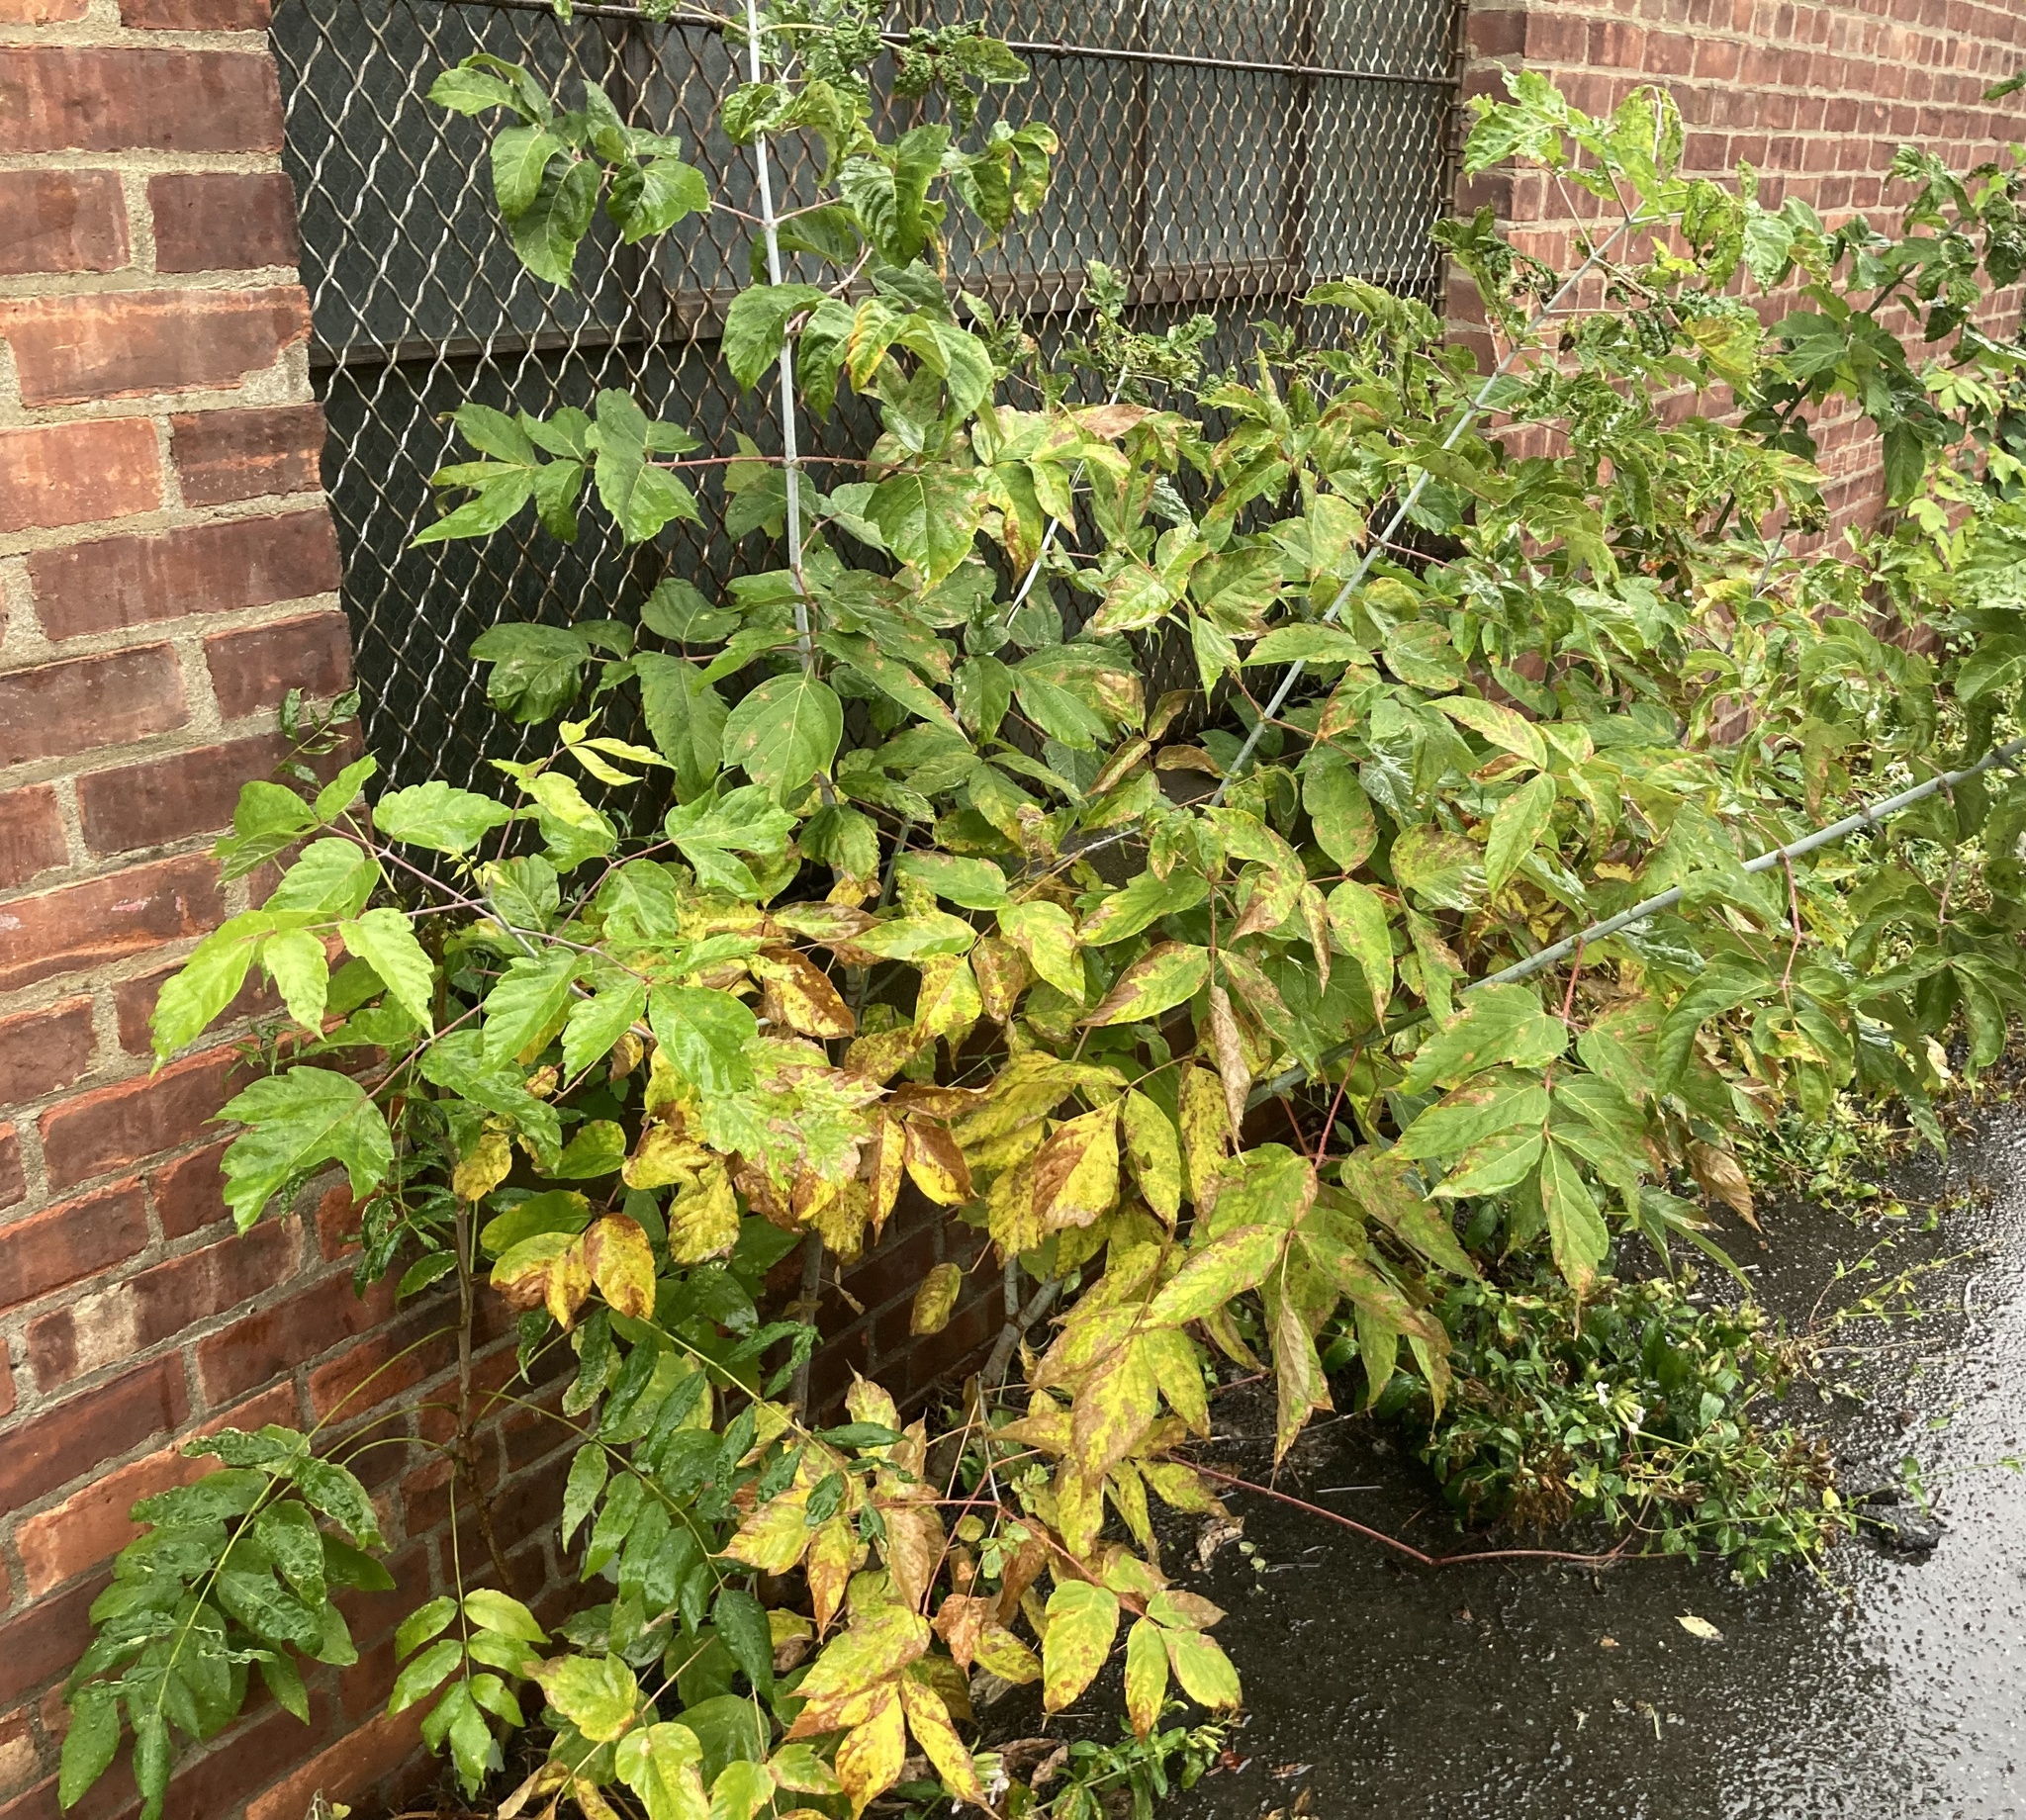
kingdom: Plantae
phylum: Tracheophyta
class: Magnoliopsida
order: Sapindales
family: Sapindaceae
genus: Acer
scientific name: Acer negundo
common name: Ashleaf maple
